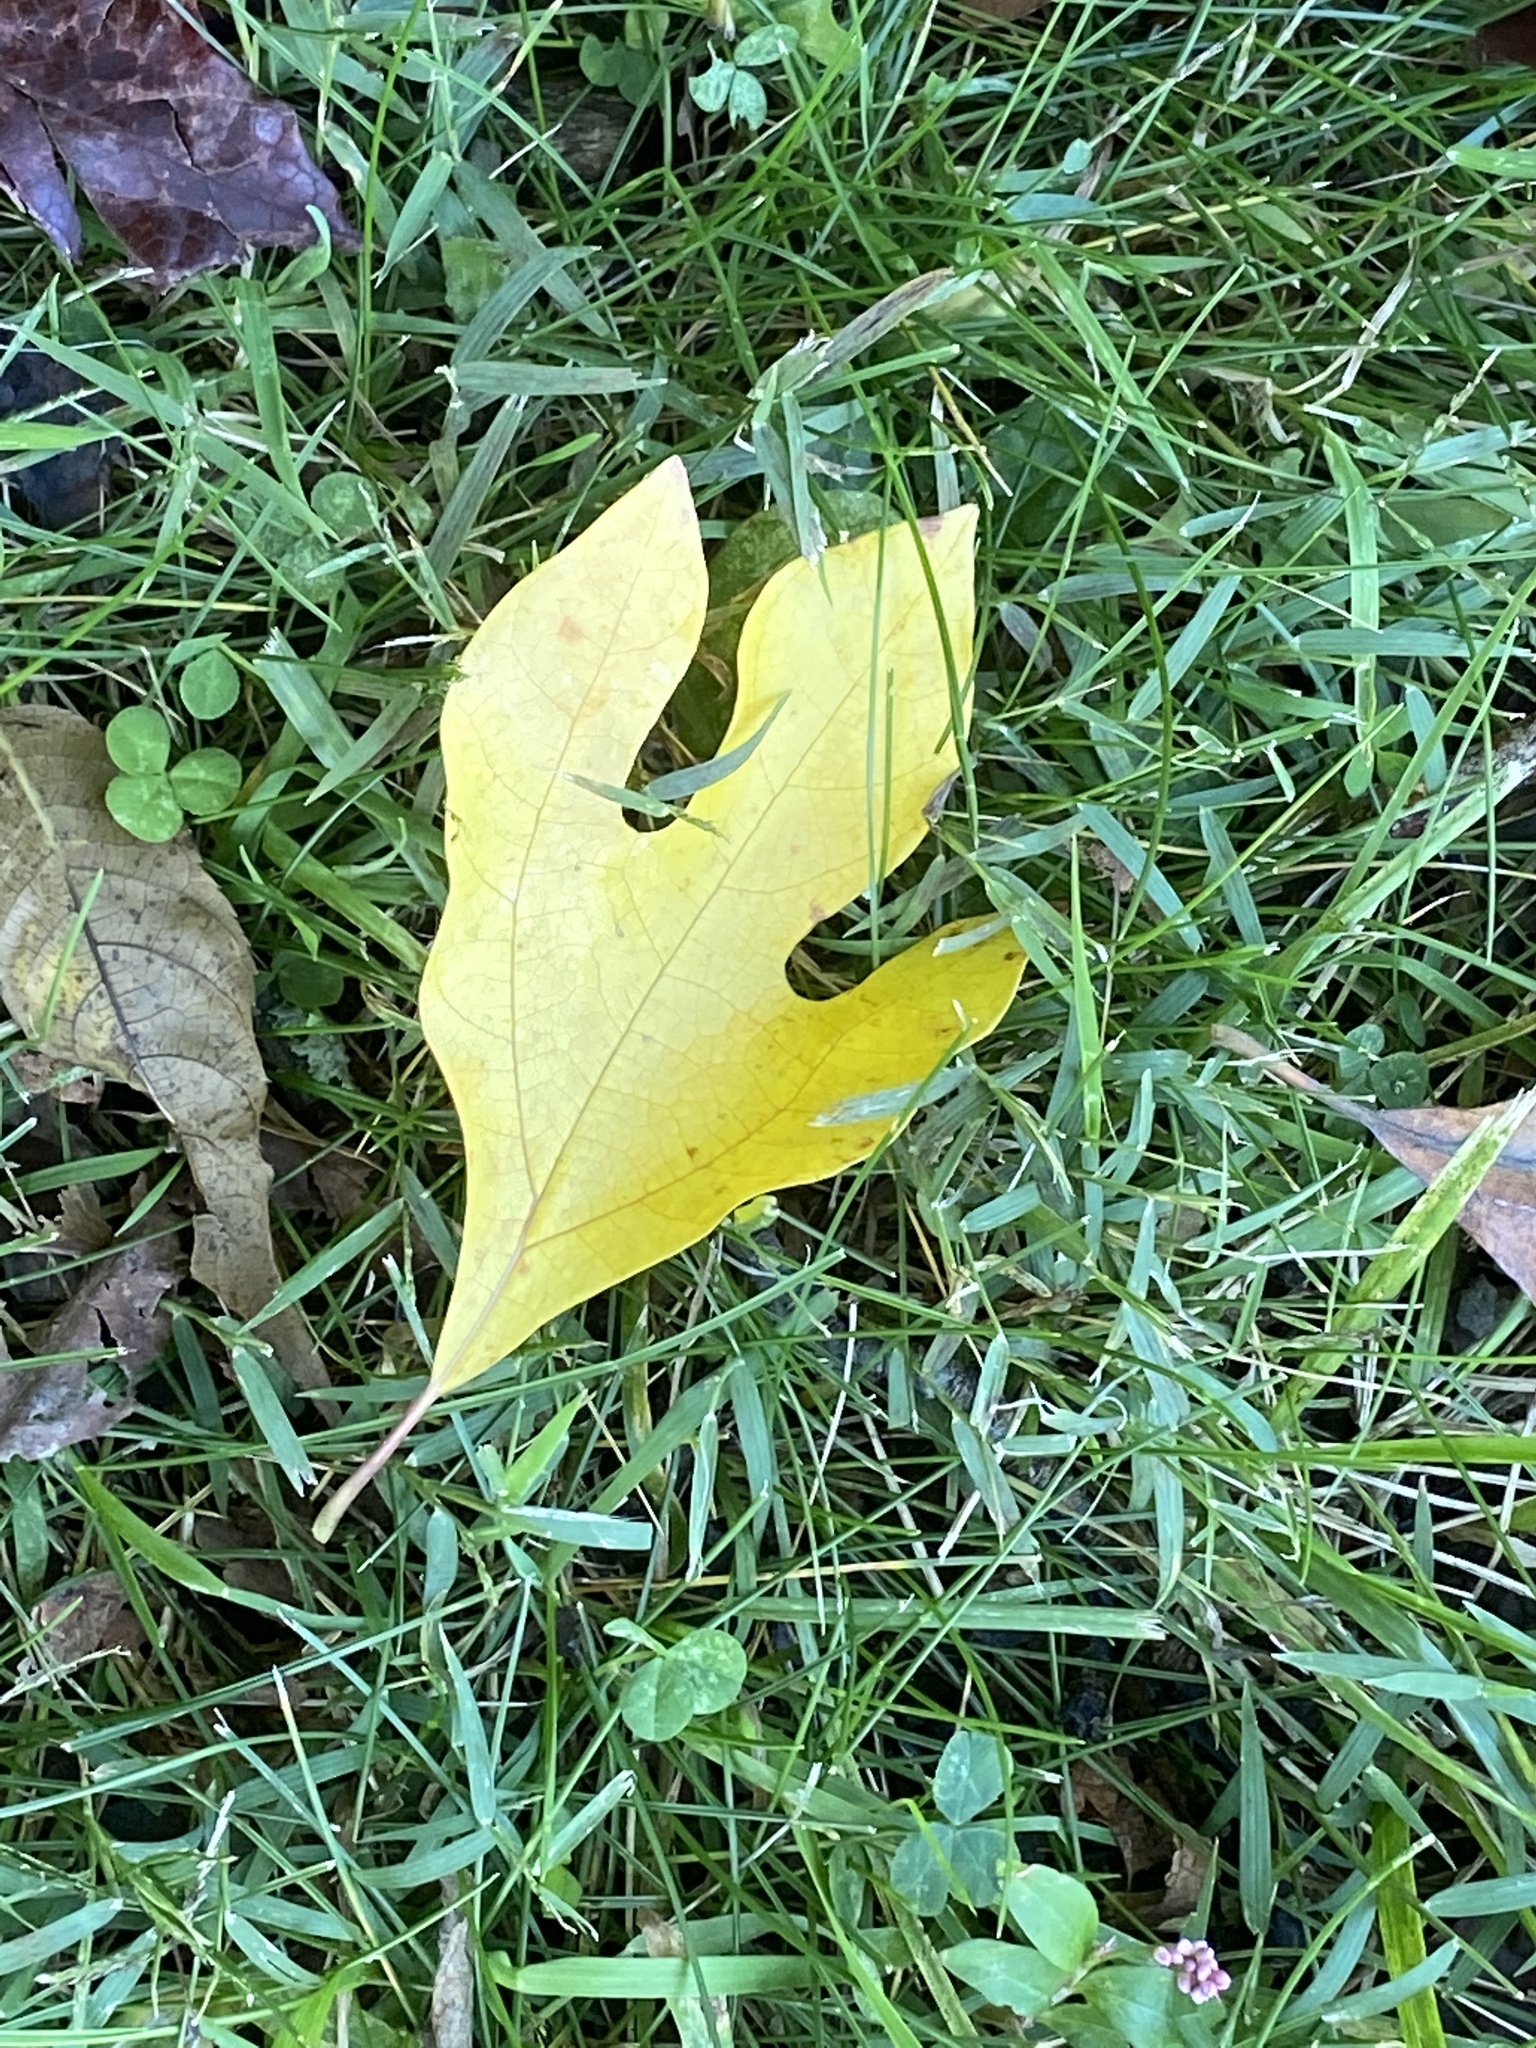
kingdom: Plantae
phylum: Tracheophyta
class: Magnoliopsida
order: Laurales
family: Lauraceae
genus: Sassafras
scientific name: Sassafras albidum
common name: Sassafras
